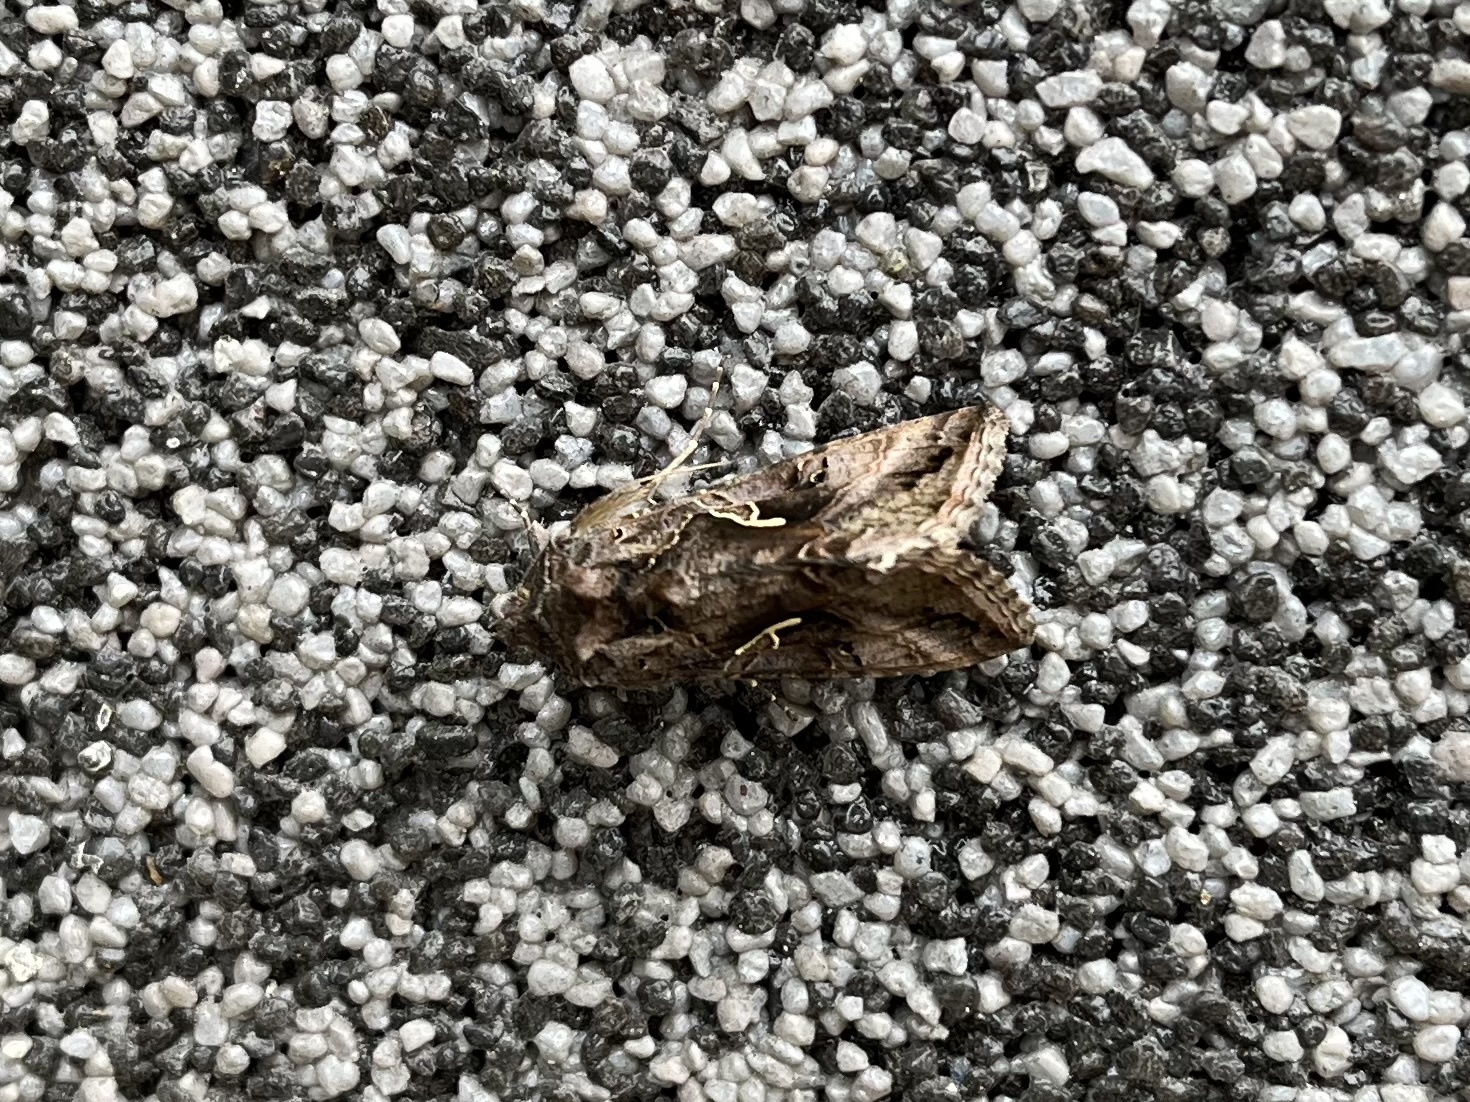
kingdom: Animalia
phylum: Arthropoda
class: Insecta
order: Lepidoptera
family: Noctuidae
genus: Autographa
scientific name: Autographa gamma
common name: Silver y
